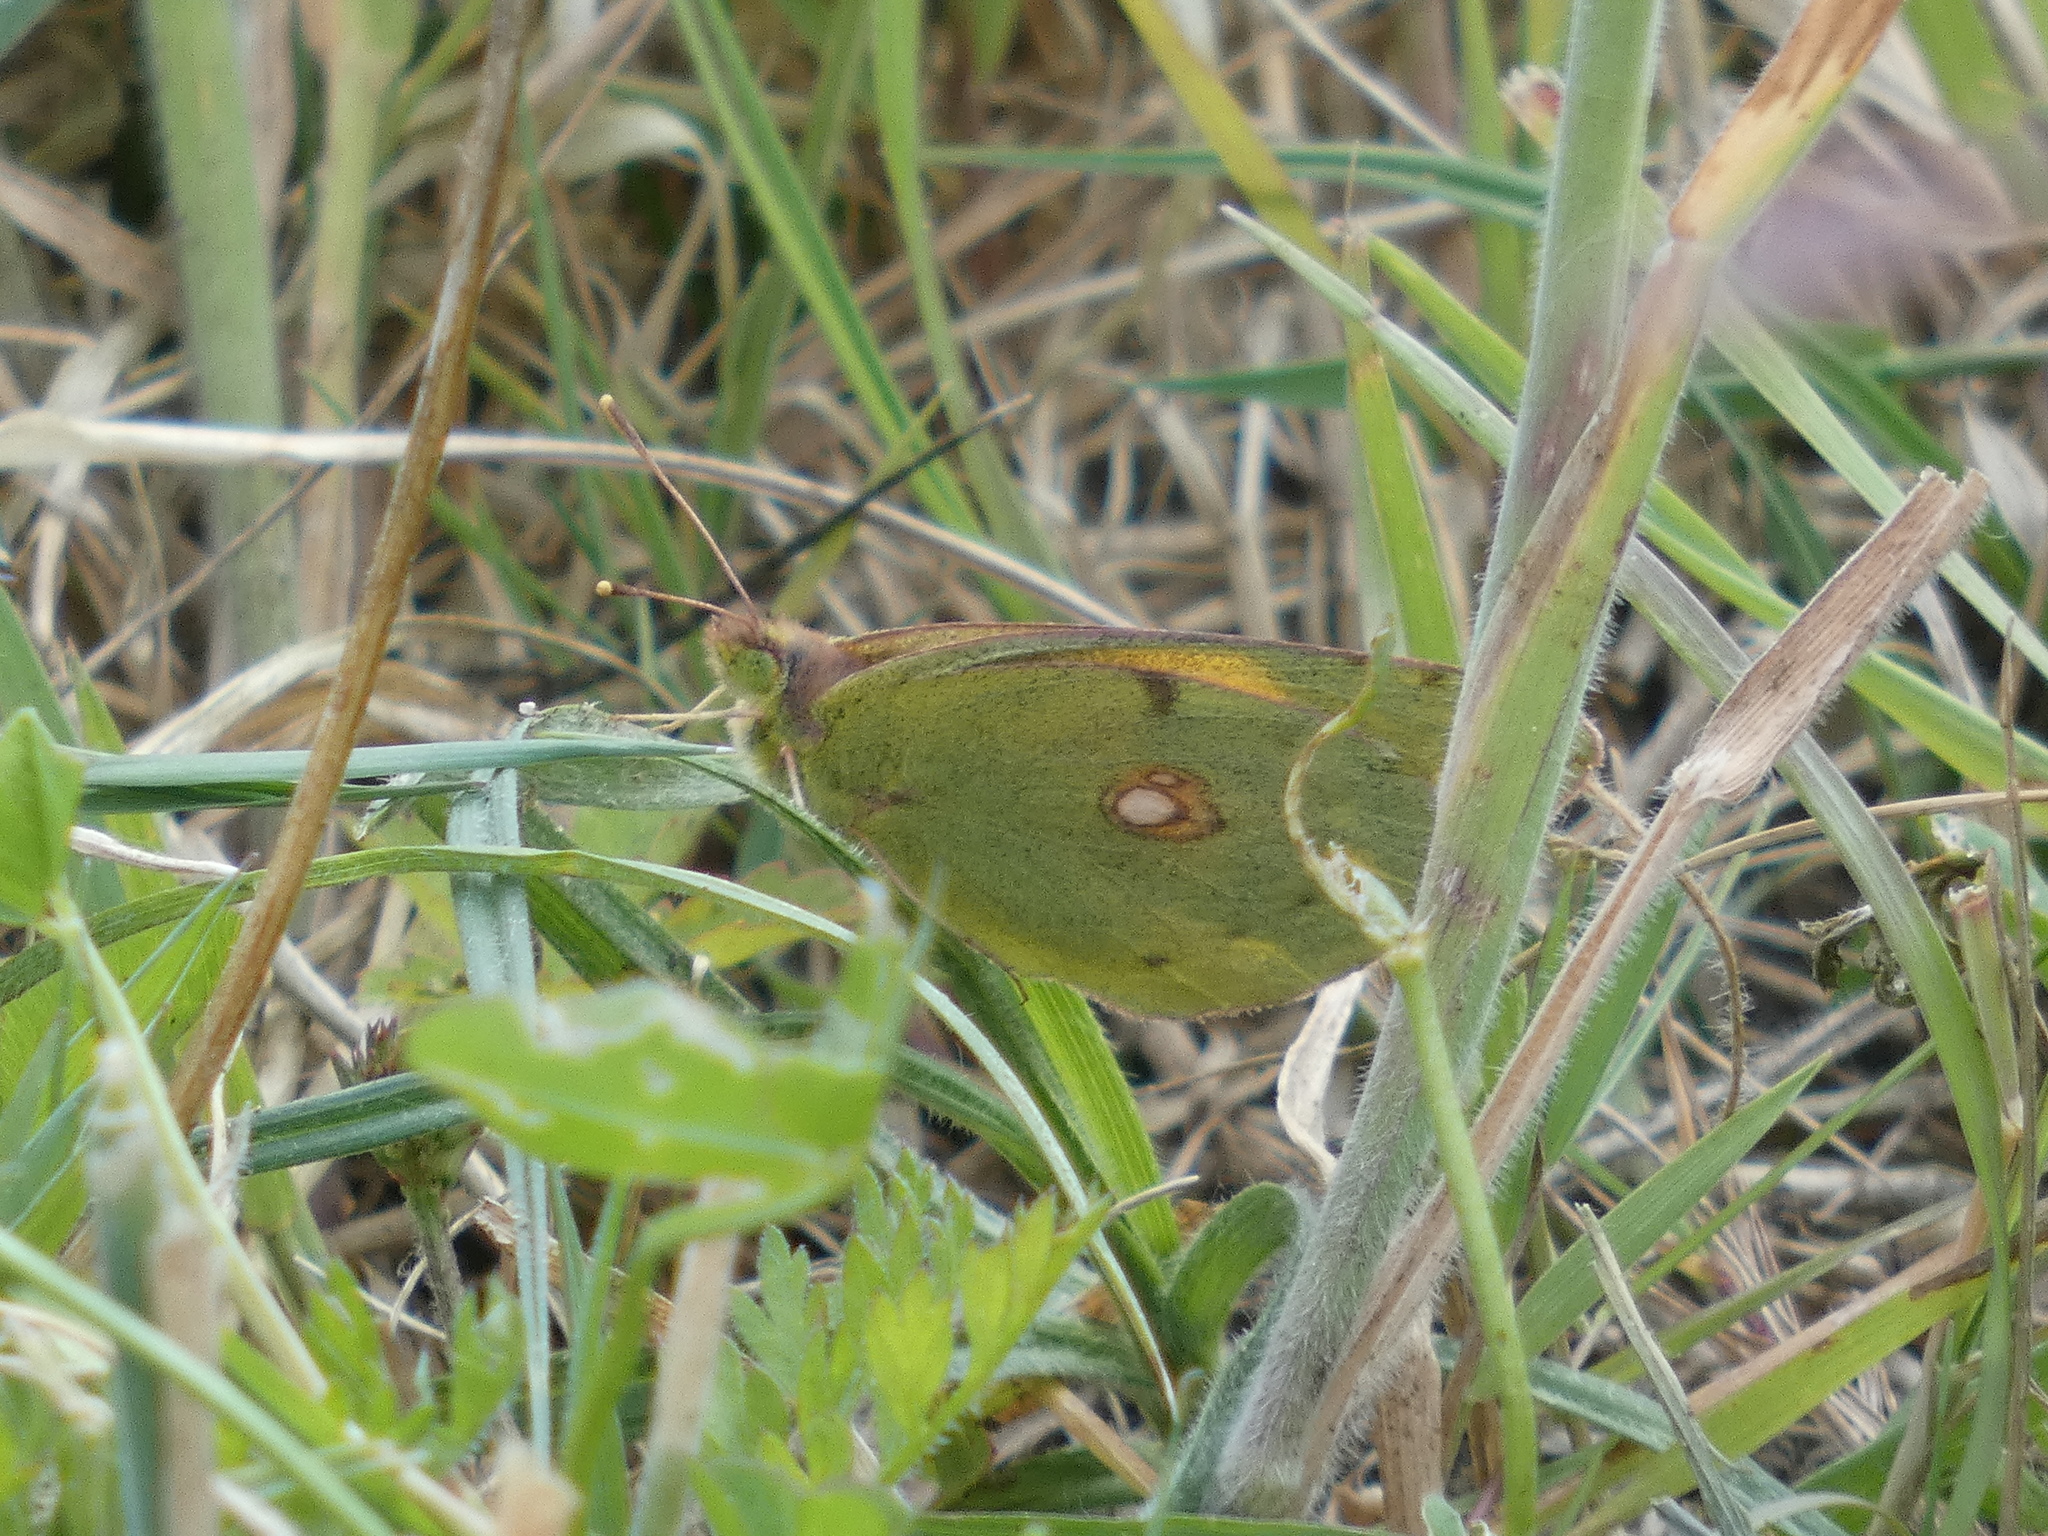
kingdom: Animalia
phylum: Arthropoda
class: Insecta
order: Lepidoptera
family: Pieridae
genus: Colias
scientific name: Colias croceus
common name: Clouded yellow
